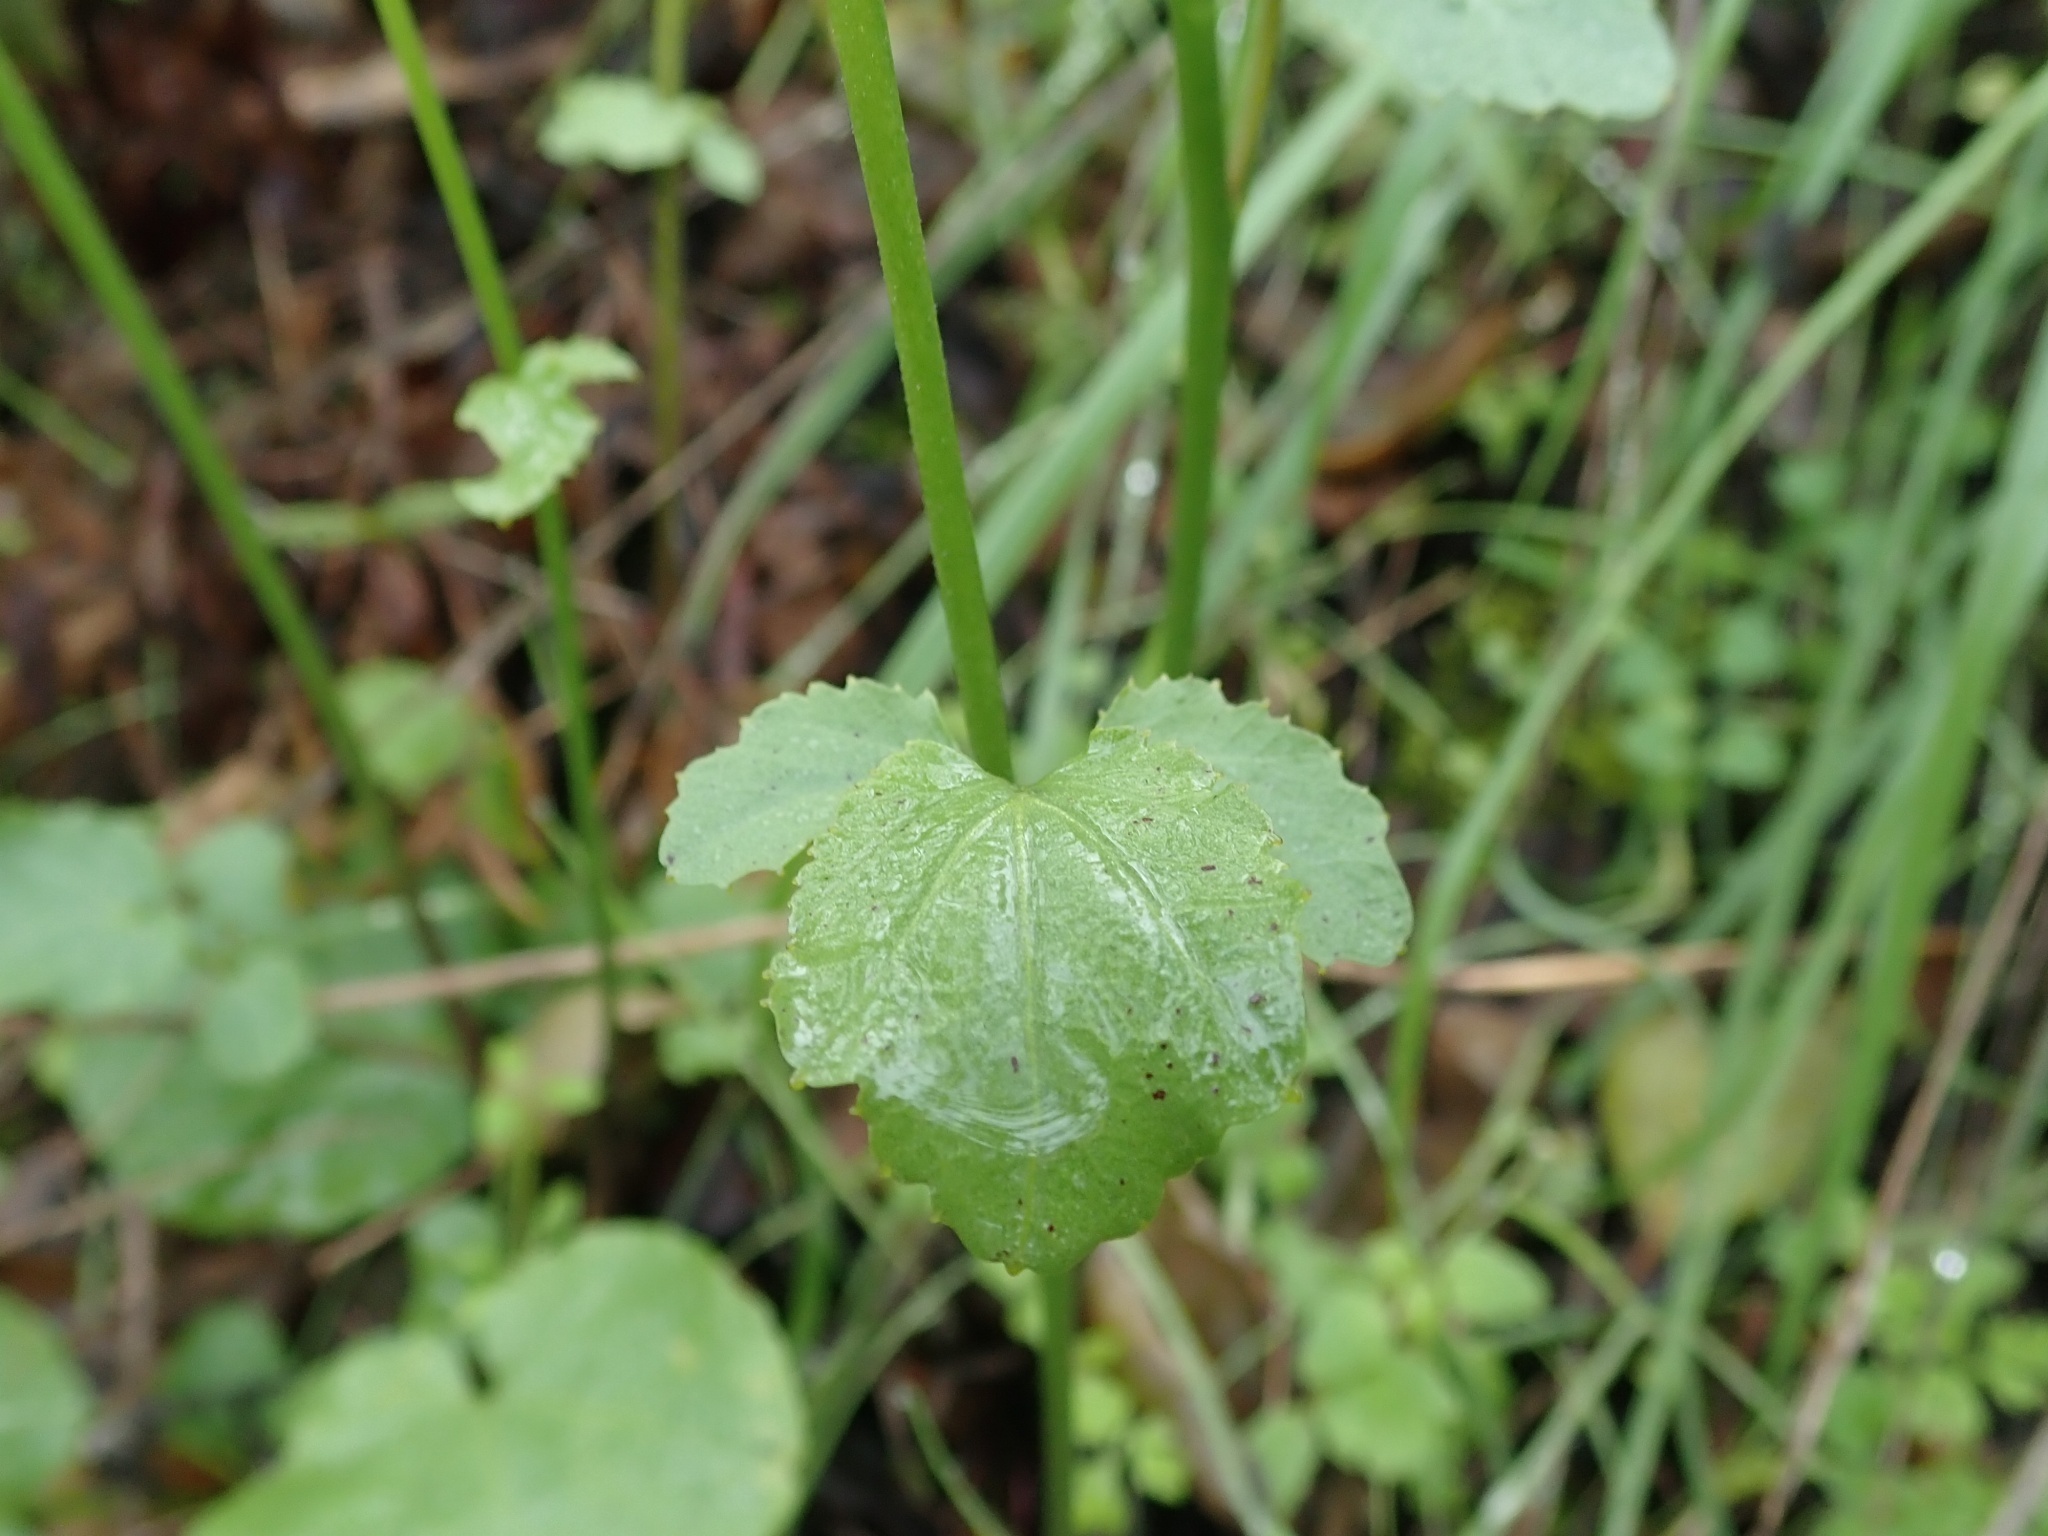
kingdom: Plantae
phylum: Tracheophyta
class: Magnoliopsida
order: Brassicales
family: Brassicaceae
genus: Cardamine
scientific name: Cardamine californica
